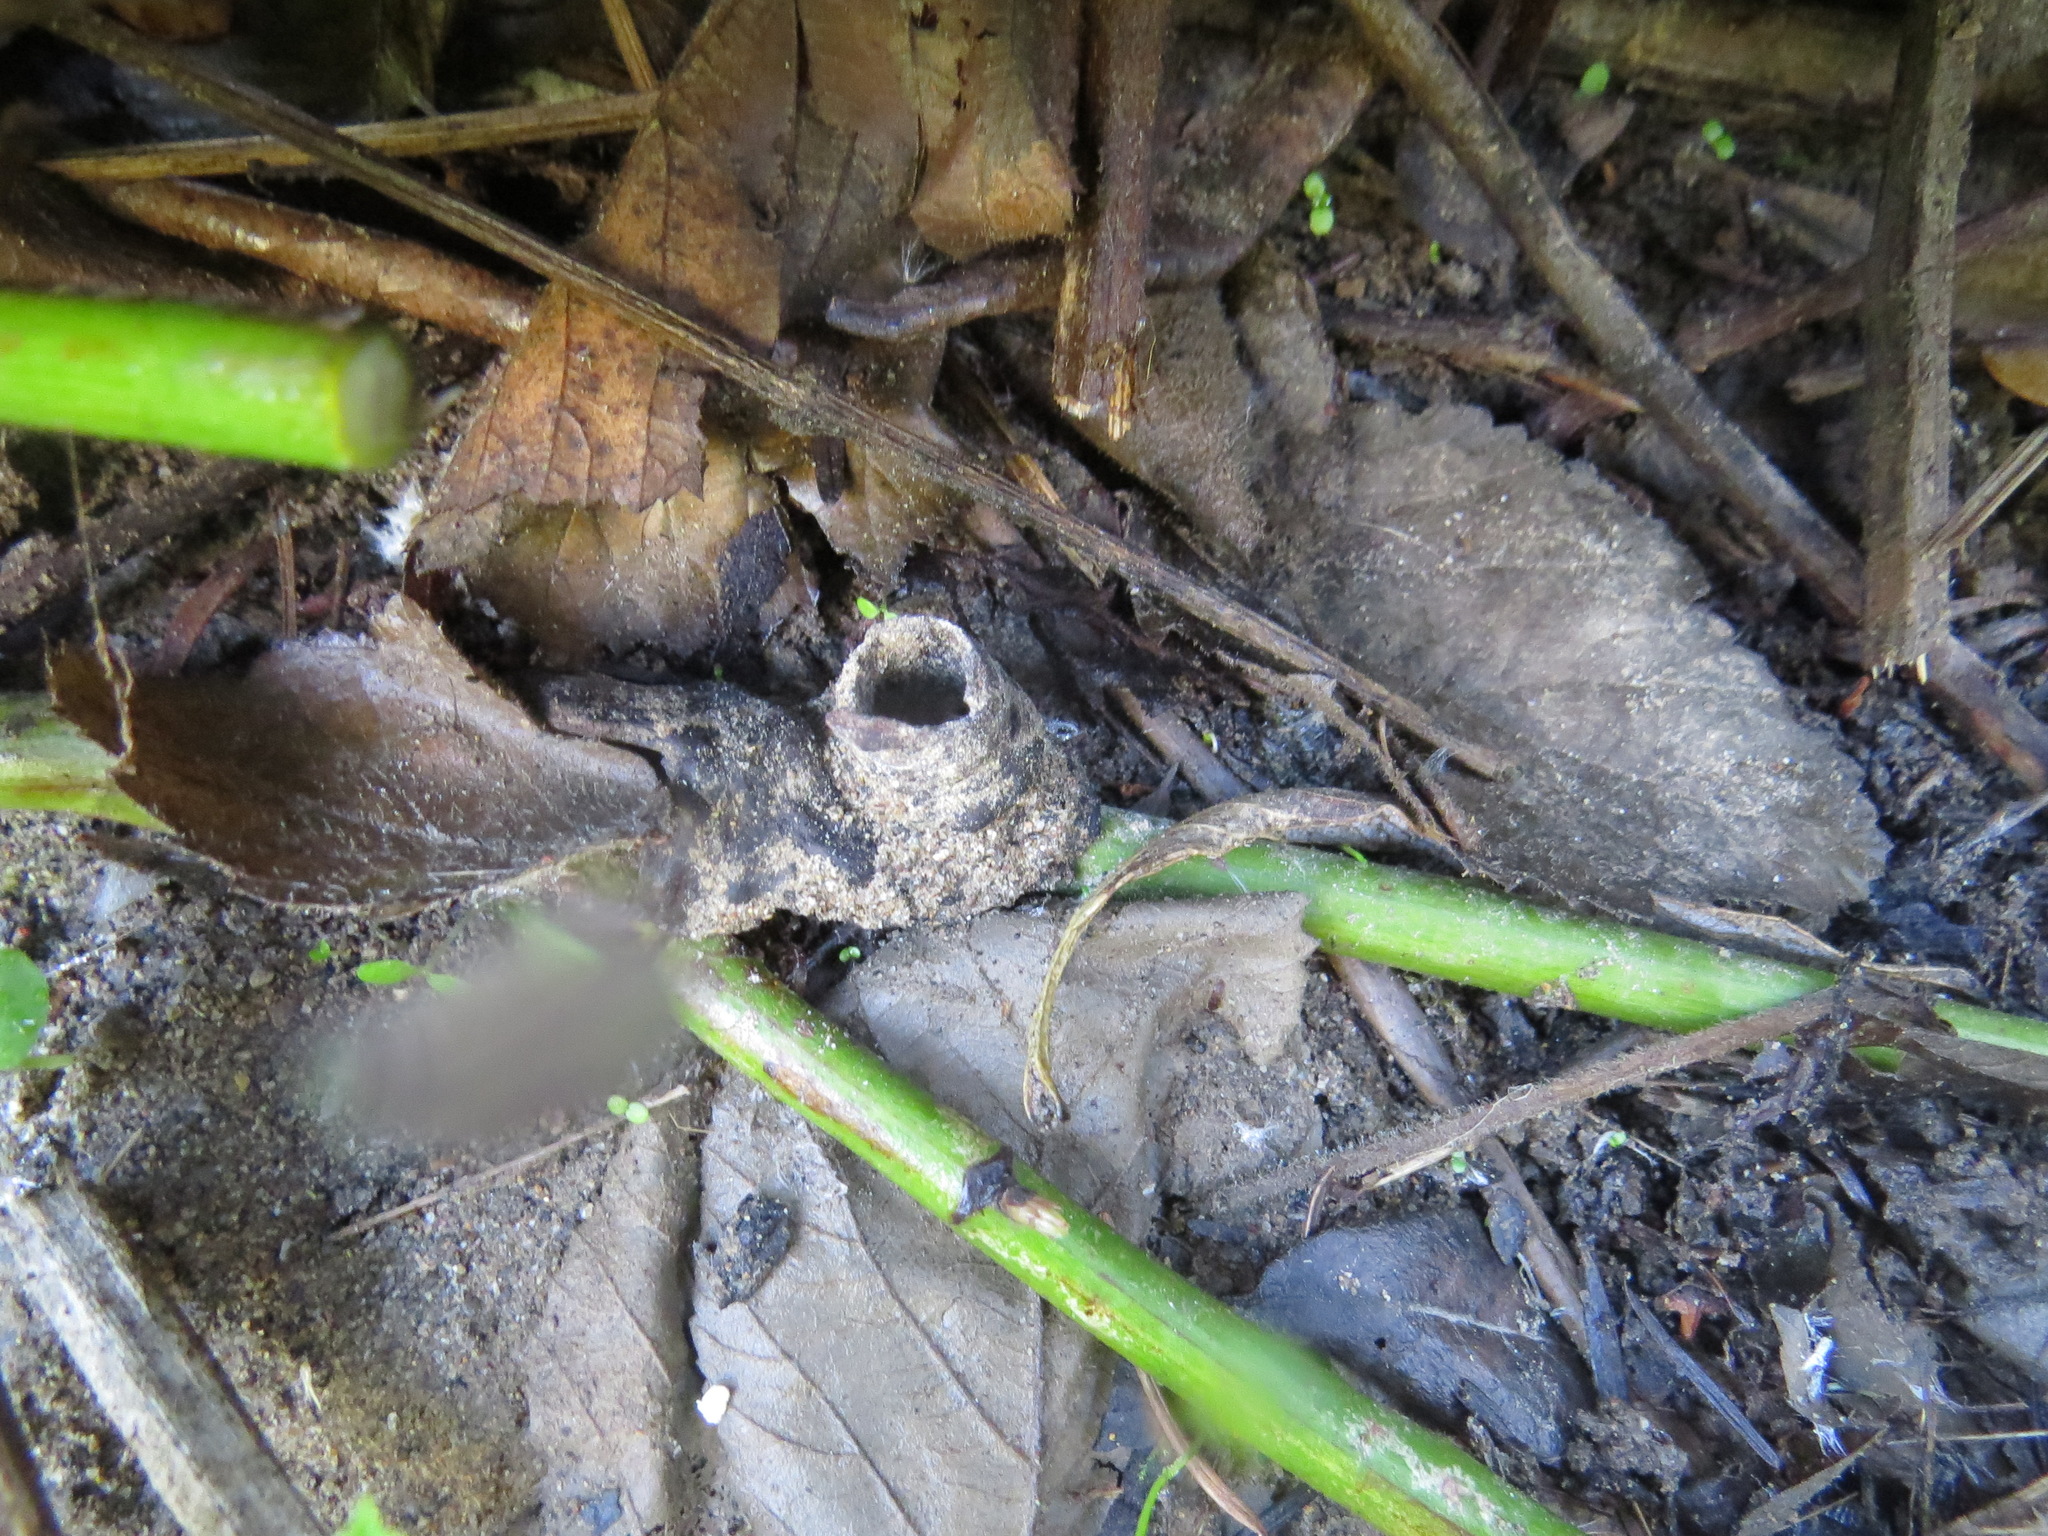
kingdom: Animalia
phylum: Arthropoda
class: Arachnida
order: Araneae
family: Antrodiaetidae
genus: Atypoides
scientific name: Atypoides riversi
